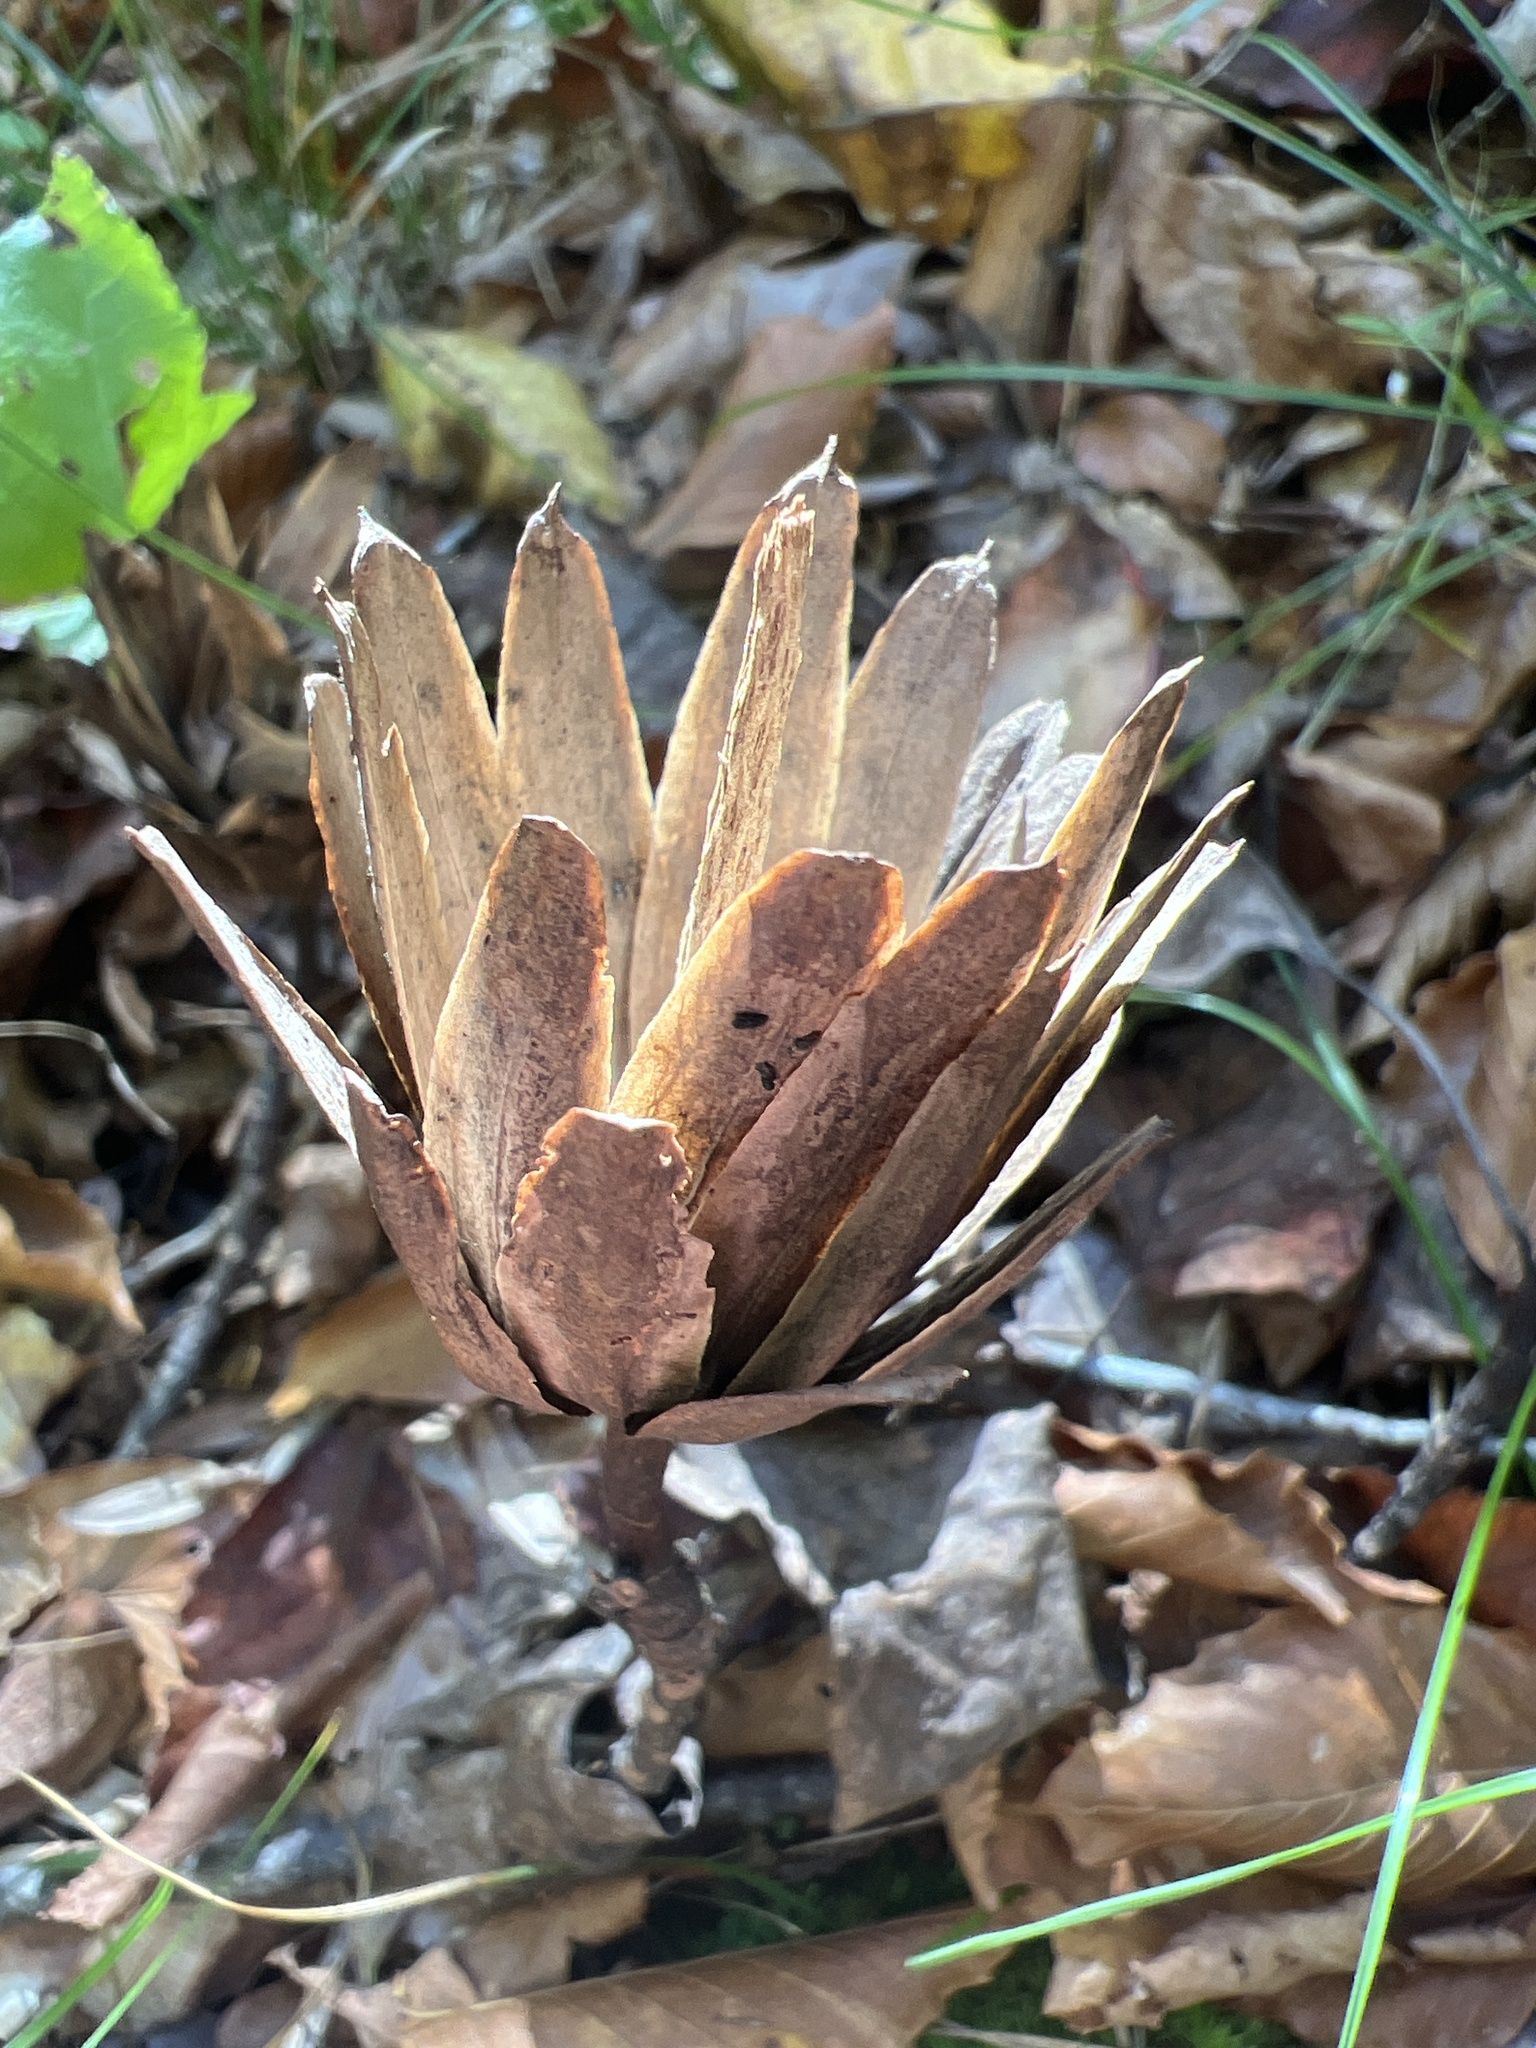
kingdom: Plantae
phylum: Tracheophyta
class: Magnoliopsida
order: Magnoliales
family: Magnoliaceae
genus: Liriodendron
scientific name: Liriodendron tulipifera
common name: Tulip tree
